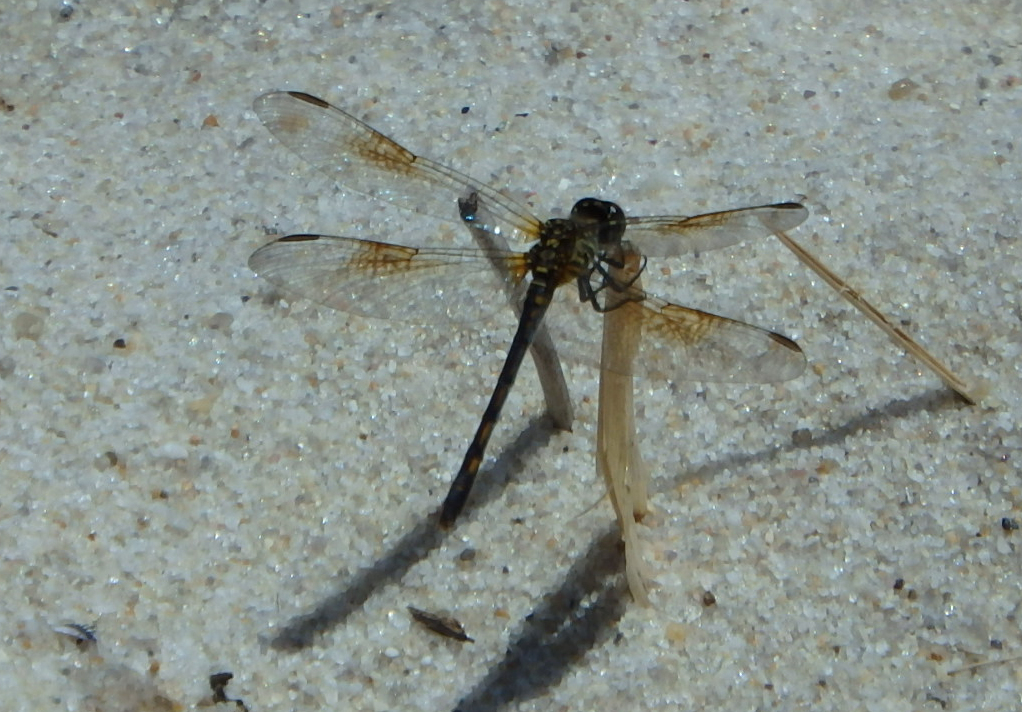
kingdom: Animalia
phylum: Arthropoda
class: Insecta
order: Odonata
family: Libellulidae
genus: Erythrodiplax
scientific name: Erythrodiplax berenice
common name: Seaside dragonlet
